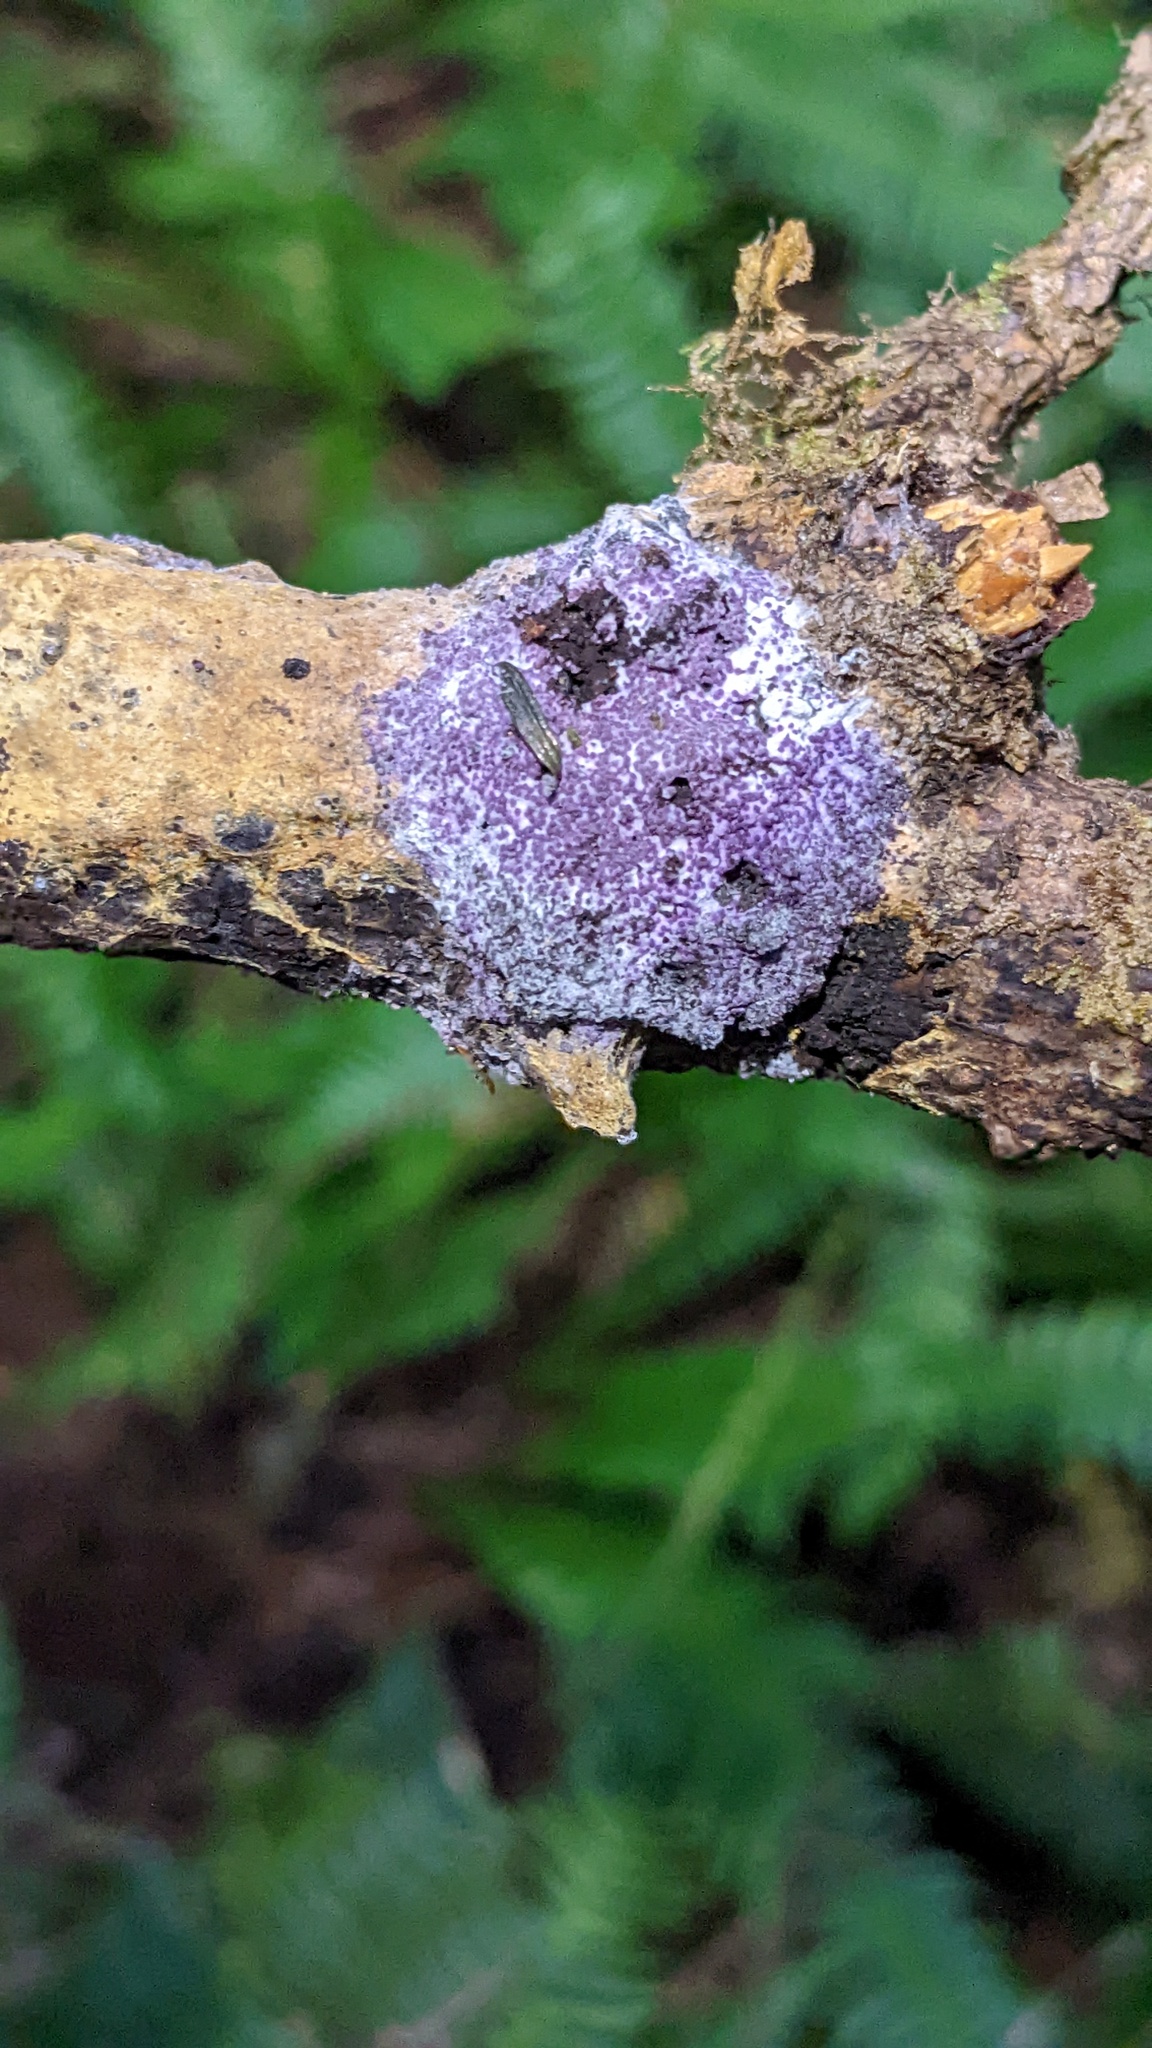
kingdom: Fungi
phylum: Ascomycota
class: Sordariomycetes
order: Hypocreales
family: Bionectriaceae
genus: Nectriopsis
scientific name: Nectriopsis violacea
